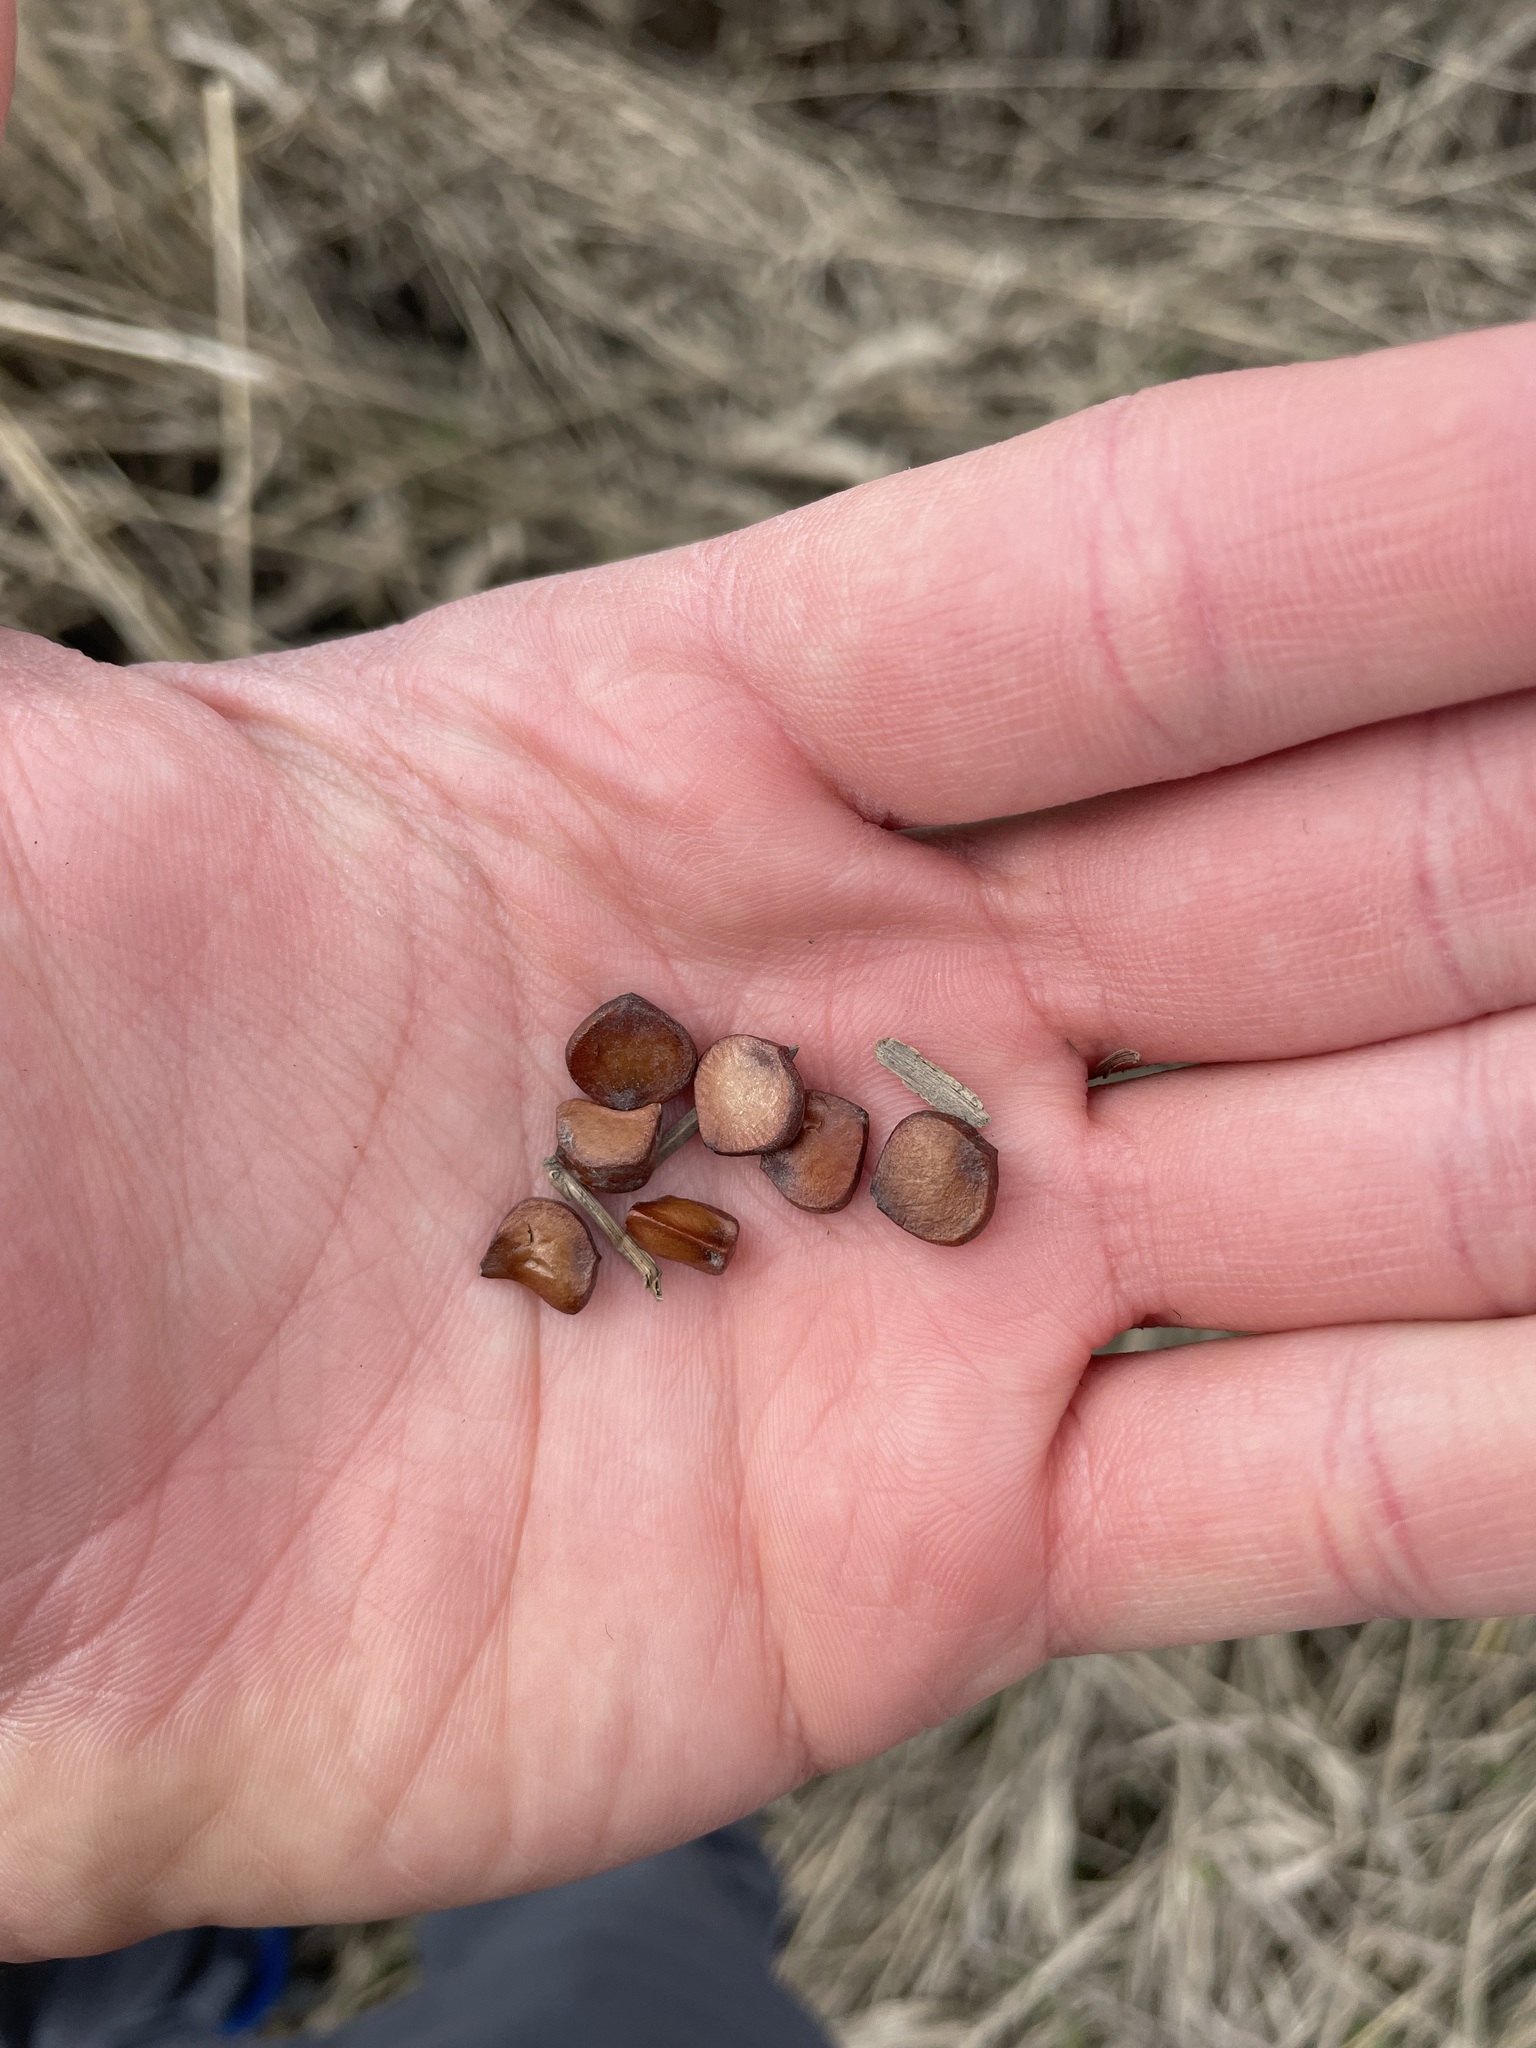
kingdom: Plantae
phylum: Tracheophyta
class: Liliopsida
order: Asparagales
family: Iridaceae
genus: Iris
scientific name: Iris pseudacorus
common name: Yellow flag
